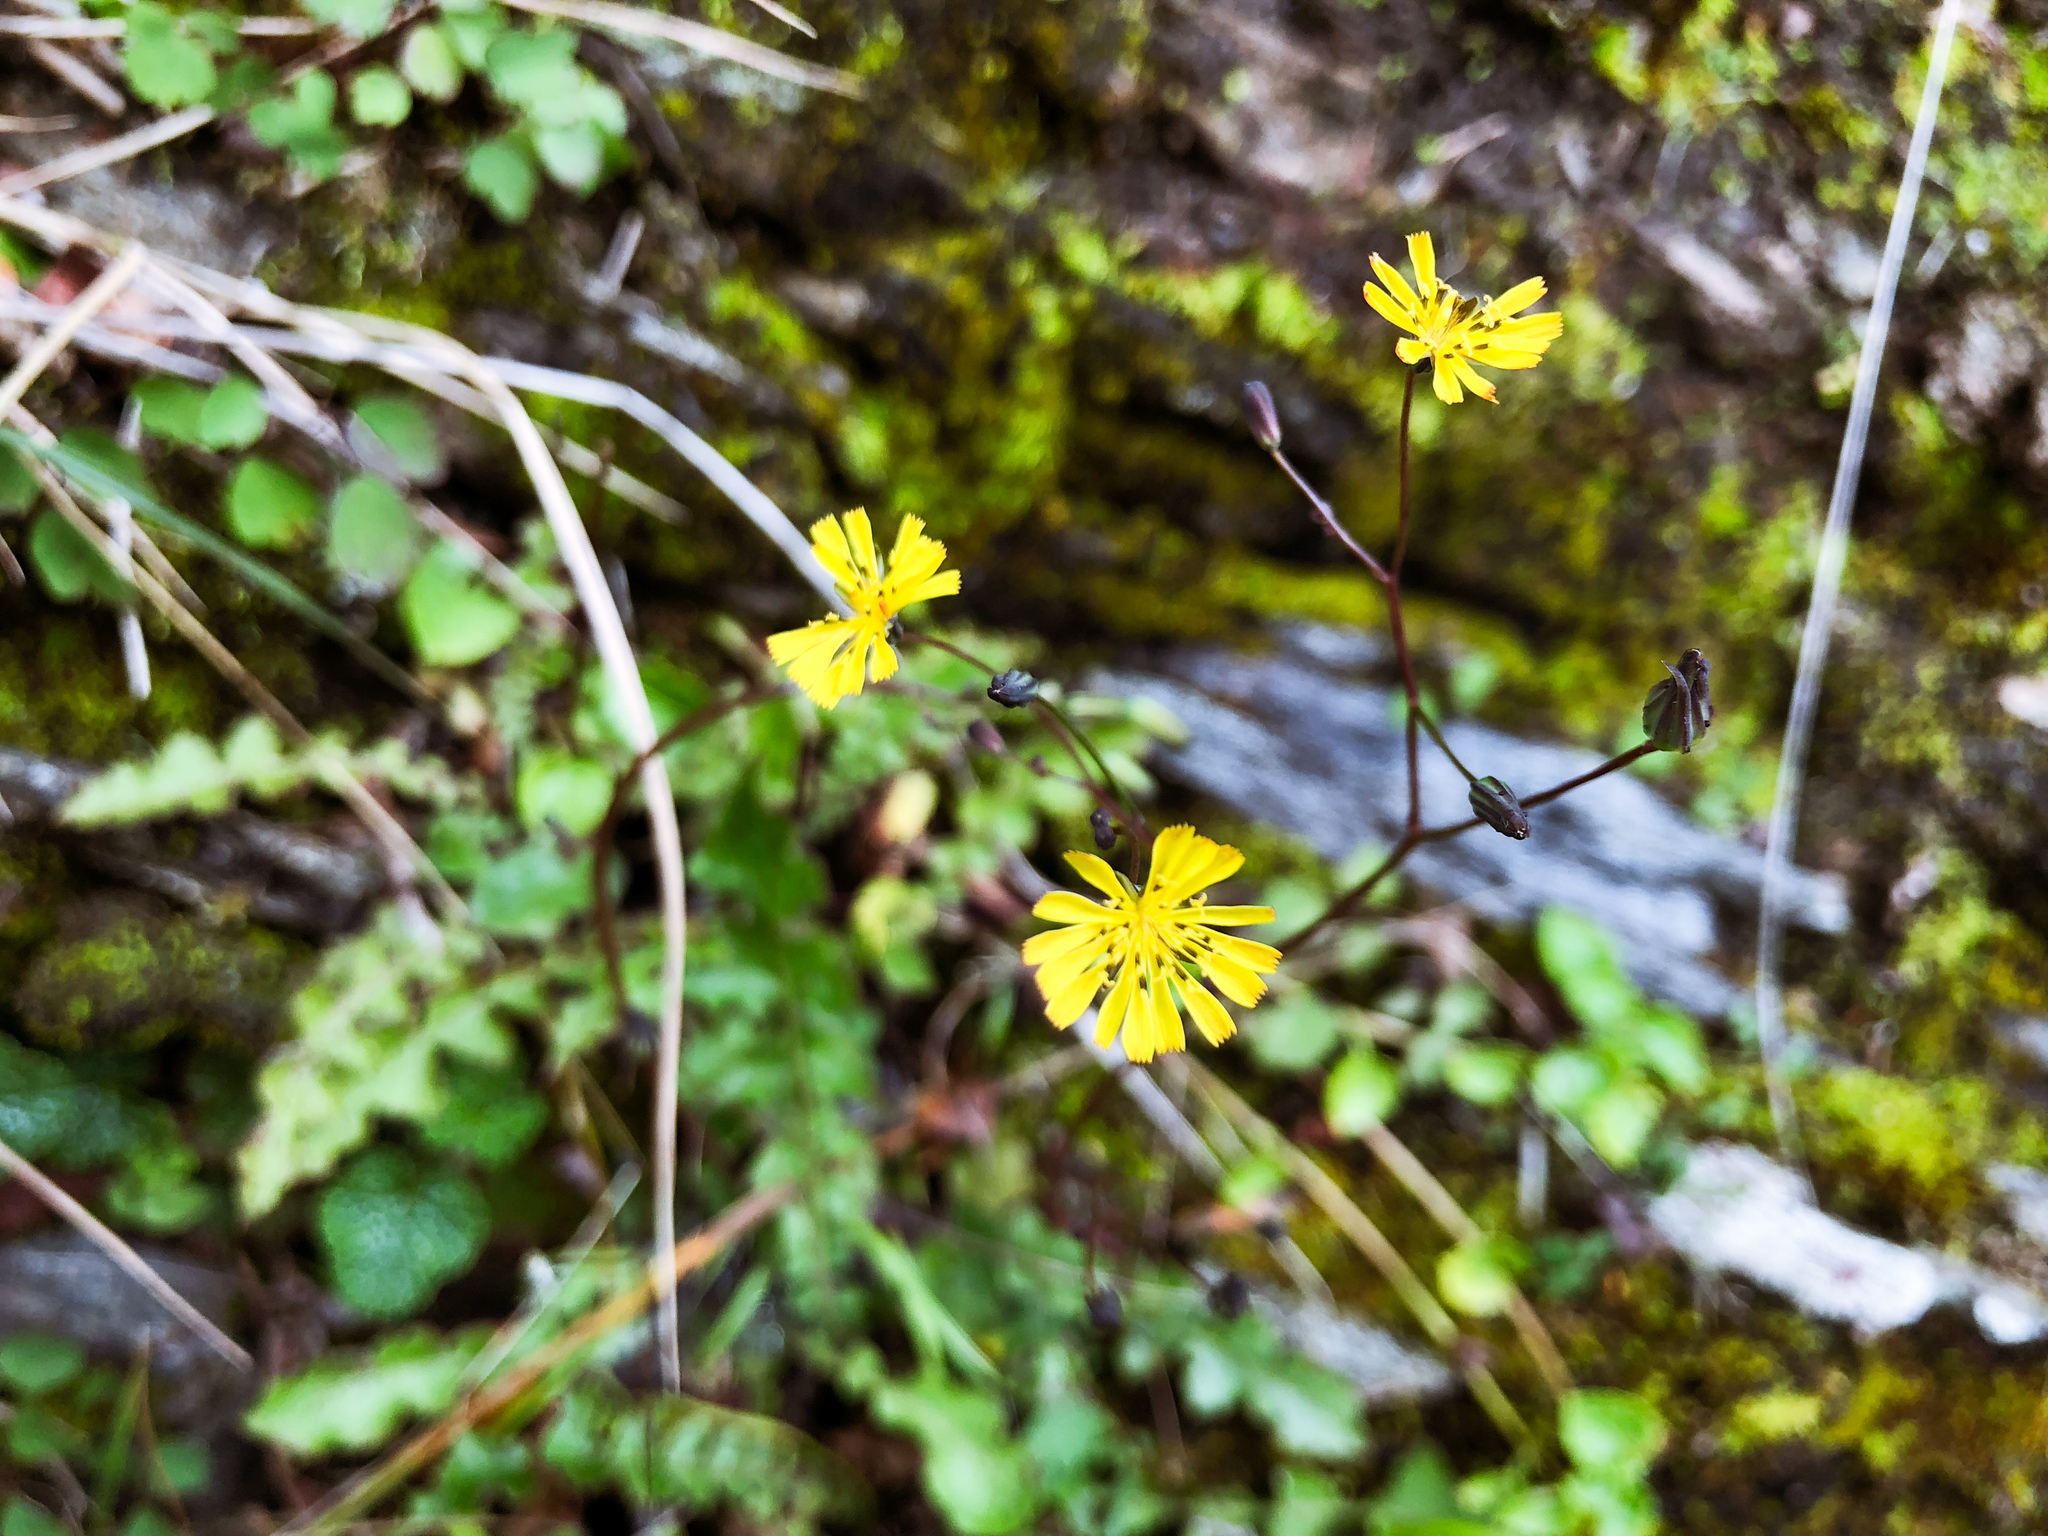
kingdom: Plantae
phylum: Tracheophyta
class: Magnoliopsida
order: Asterales
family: Asteraceae
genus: Youngia
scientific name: Youngia japonica
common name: Oriental false hawksbeard
